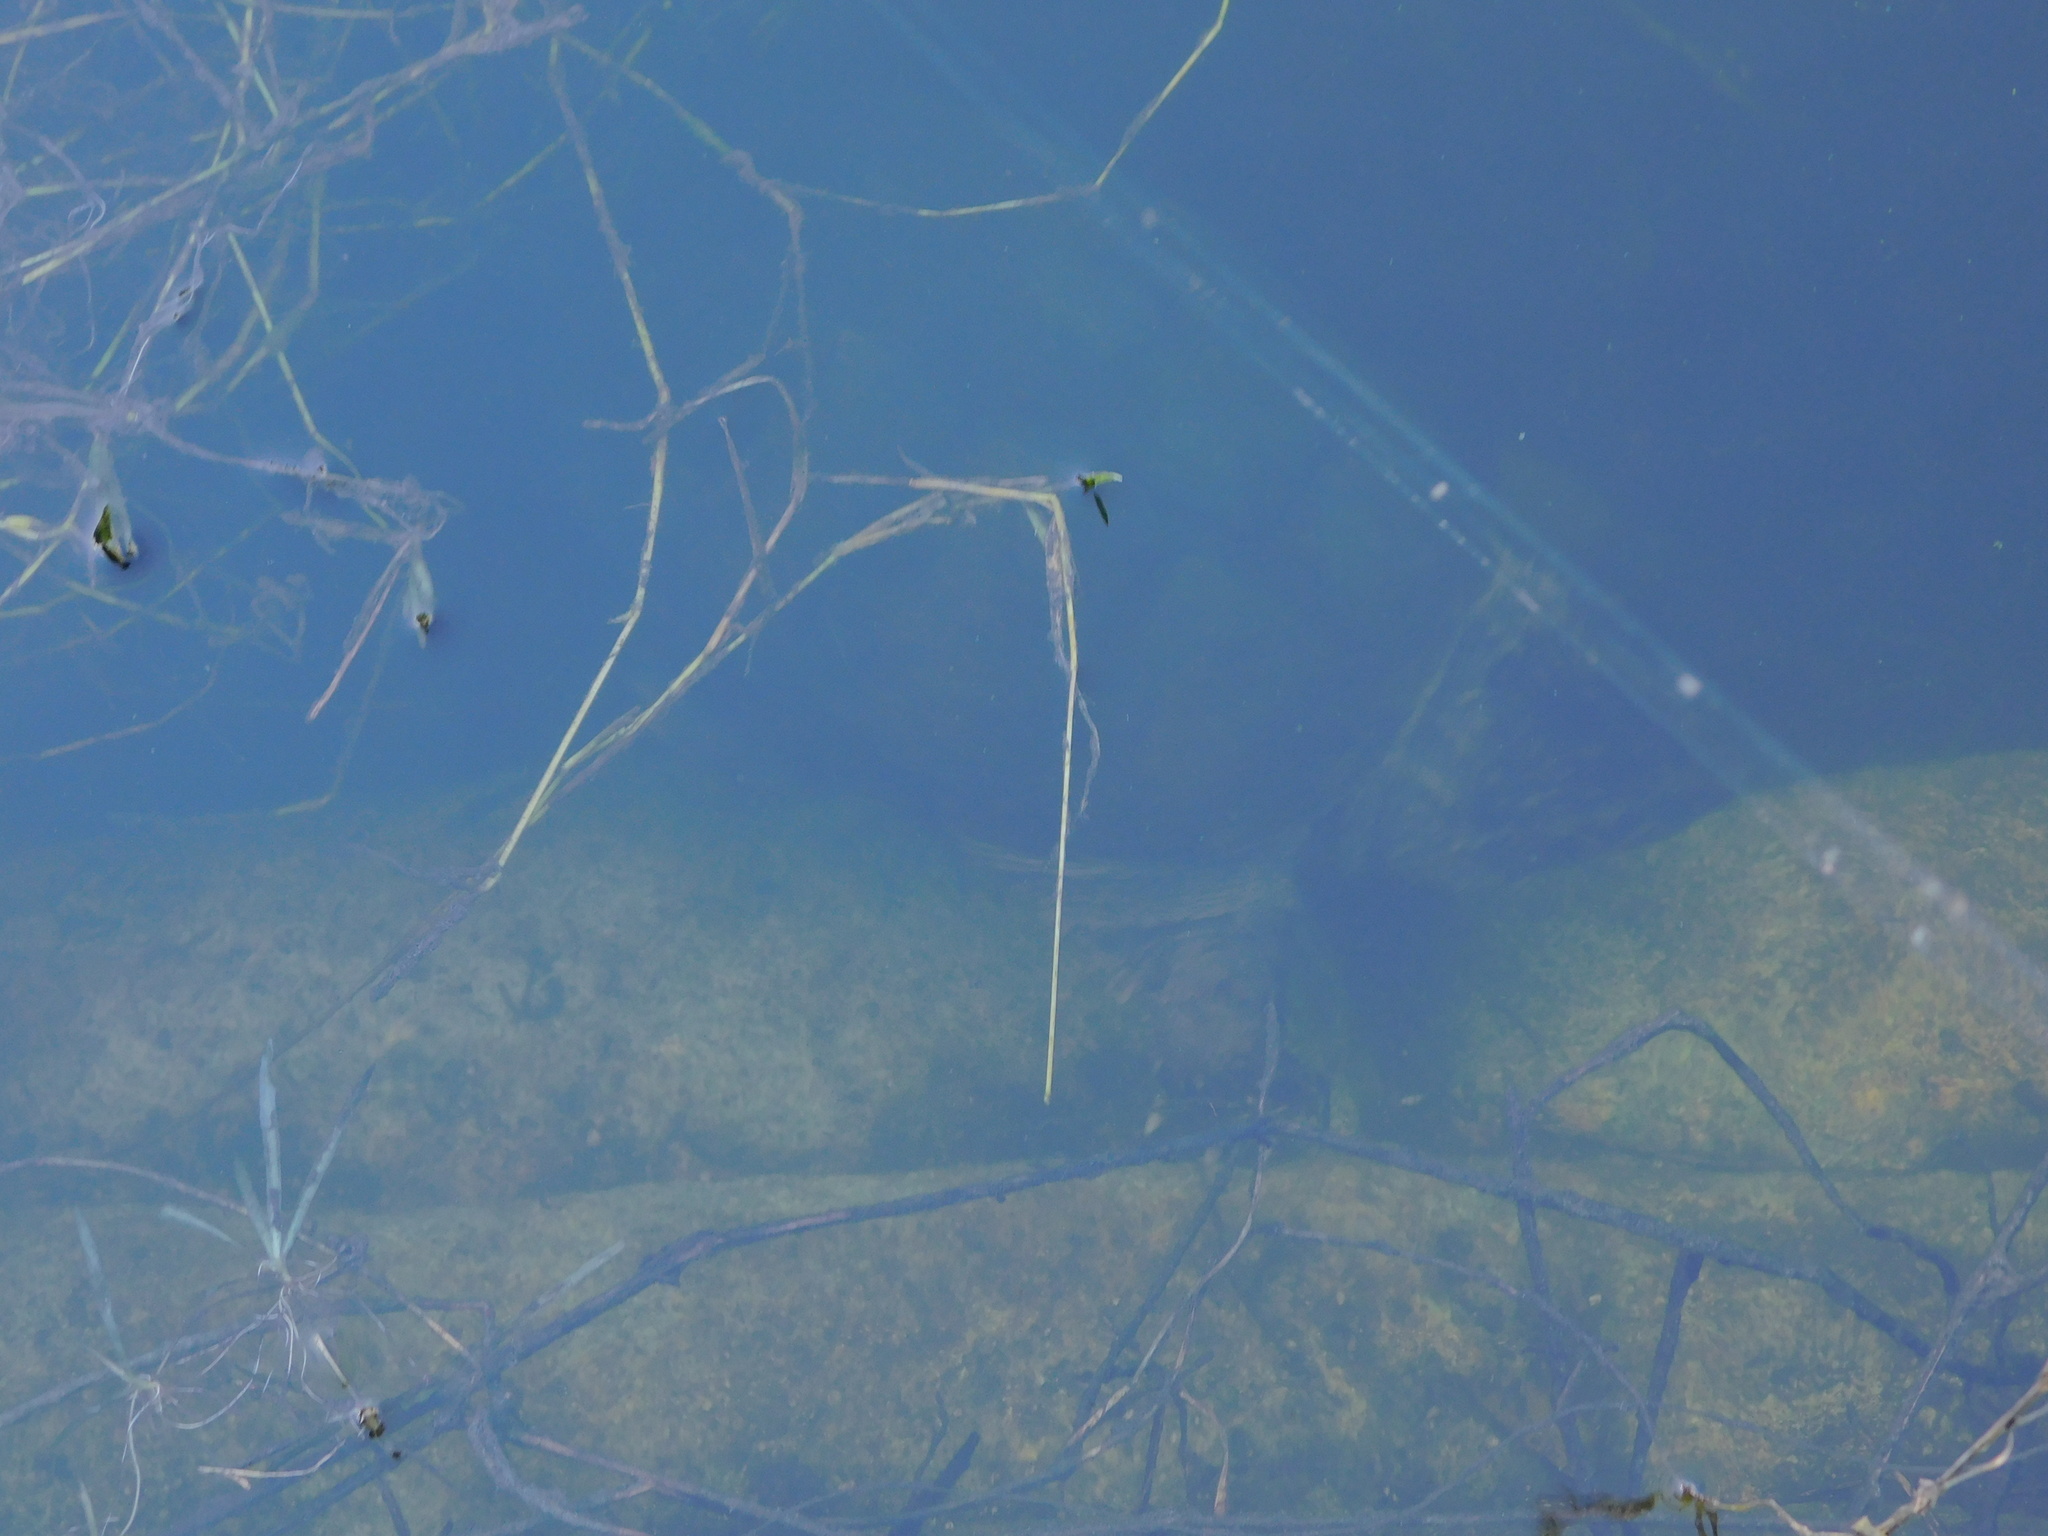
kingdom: Animalia
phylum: Chordata
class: Testudines
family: Chelydridae
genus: Chelydra
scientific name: Chelydra serpentina
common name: Common snapping turtle
